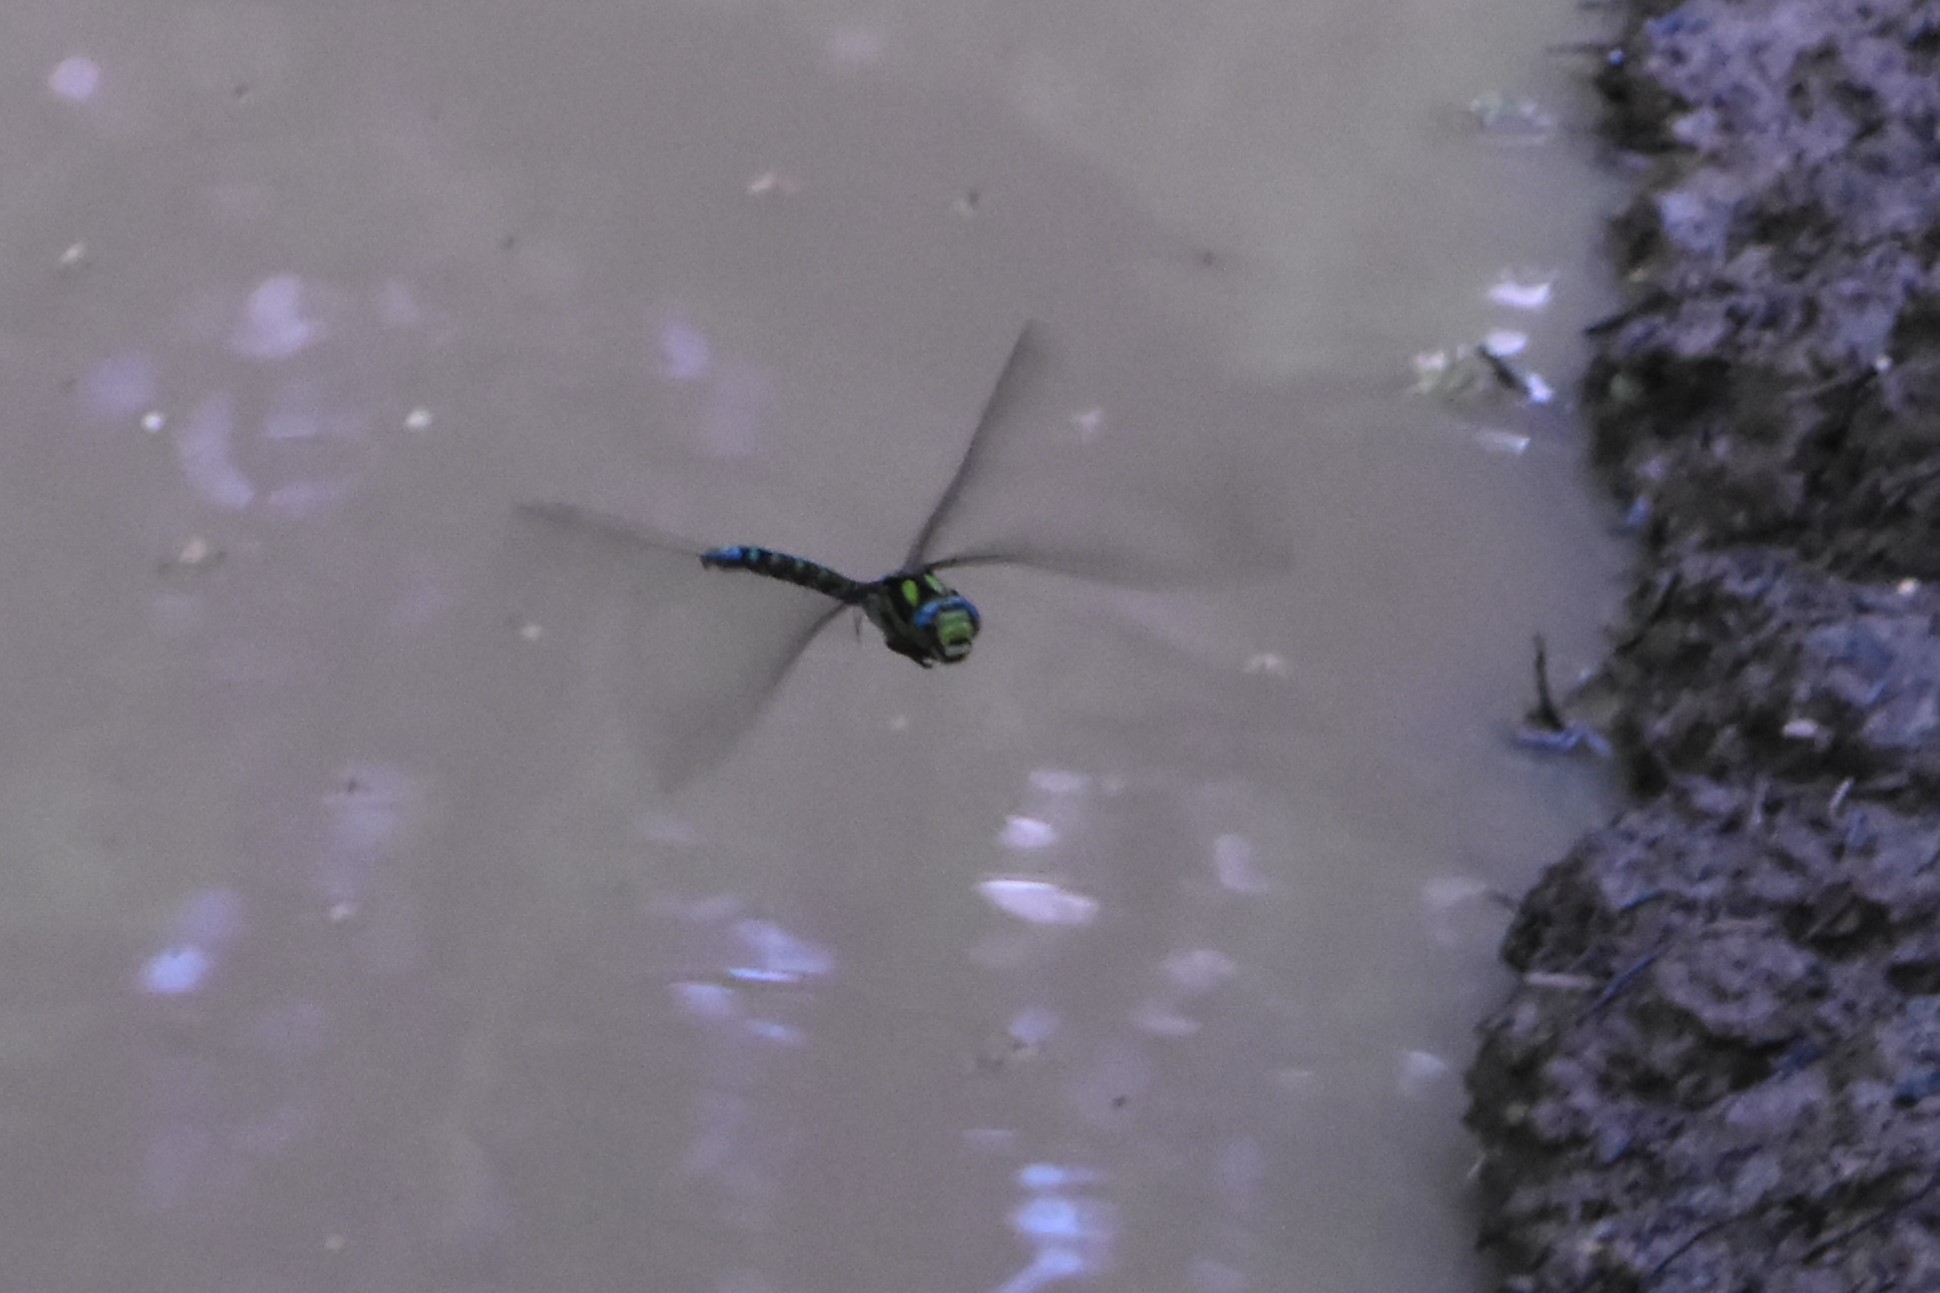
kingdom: Animalia
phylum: Arthropoda
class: Insecta
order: Odonata
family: Aeshnidae
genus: Aeshna
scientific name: Aeshna cyanea
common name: Southern hawker
